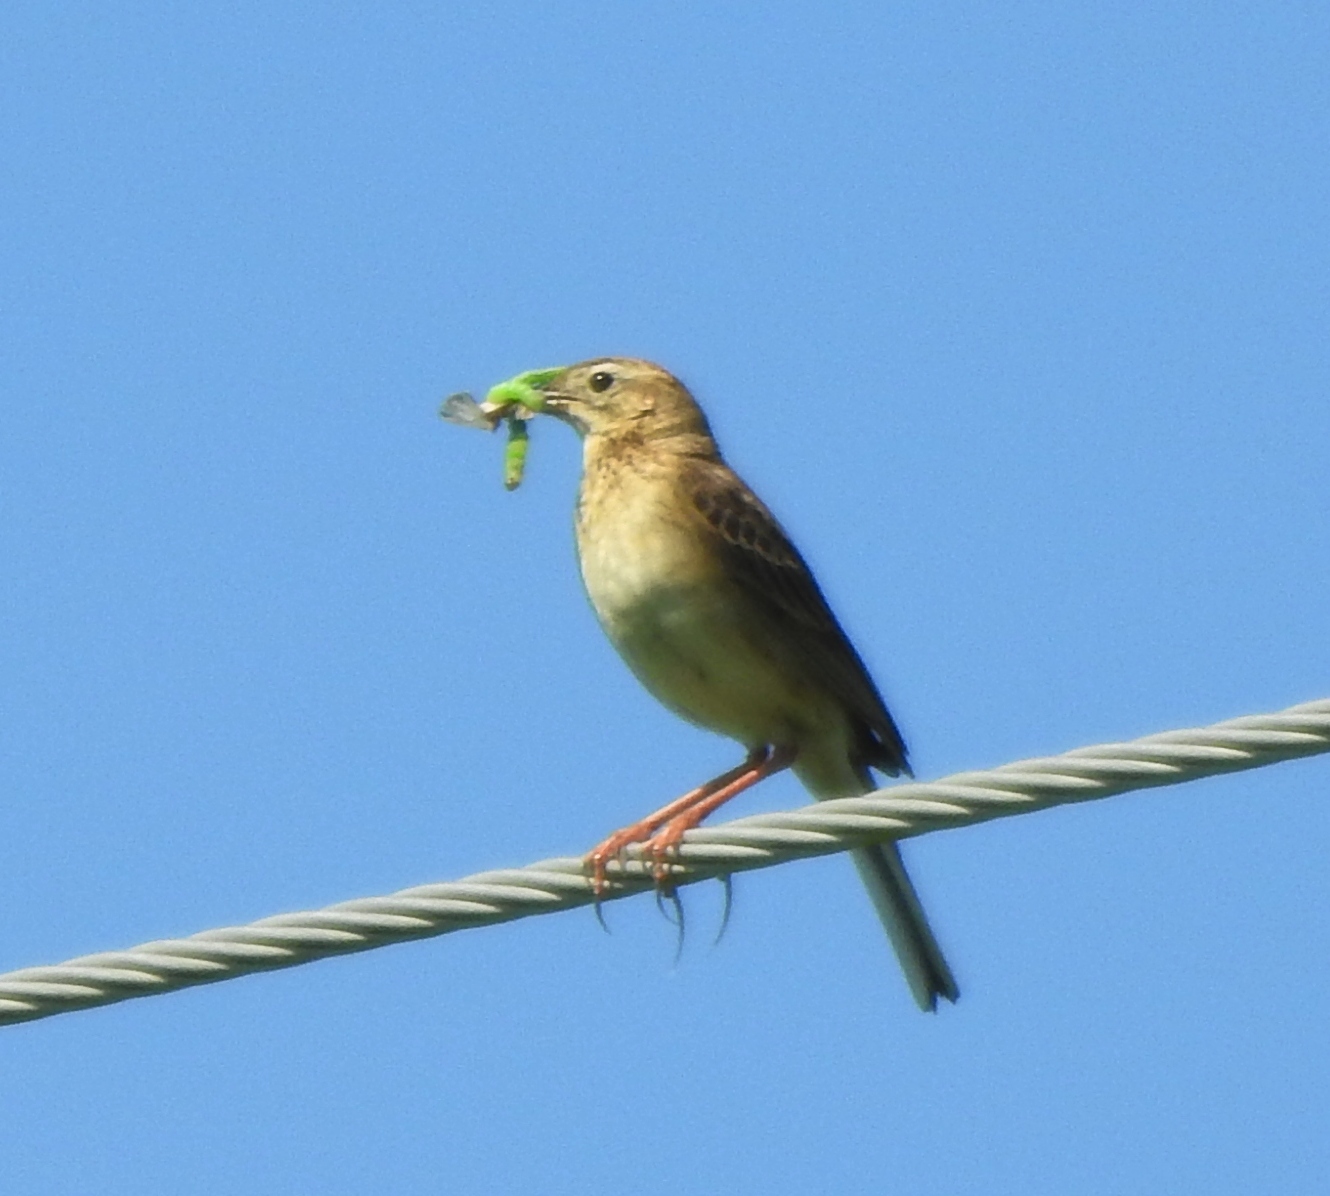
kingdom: Animalia
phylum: Chordata
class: Aves
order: Passeriformes
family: Motacillidae
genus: Anthus
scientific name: Anthus richardi
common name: Richard's pipit
